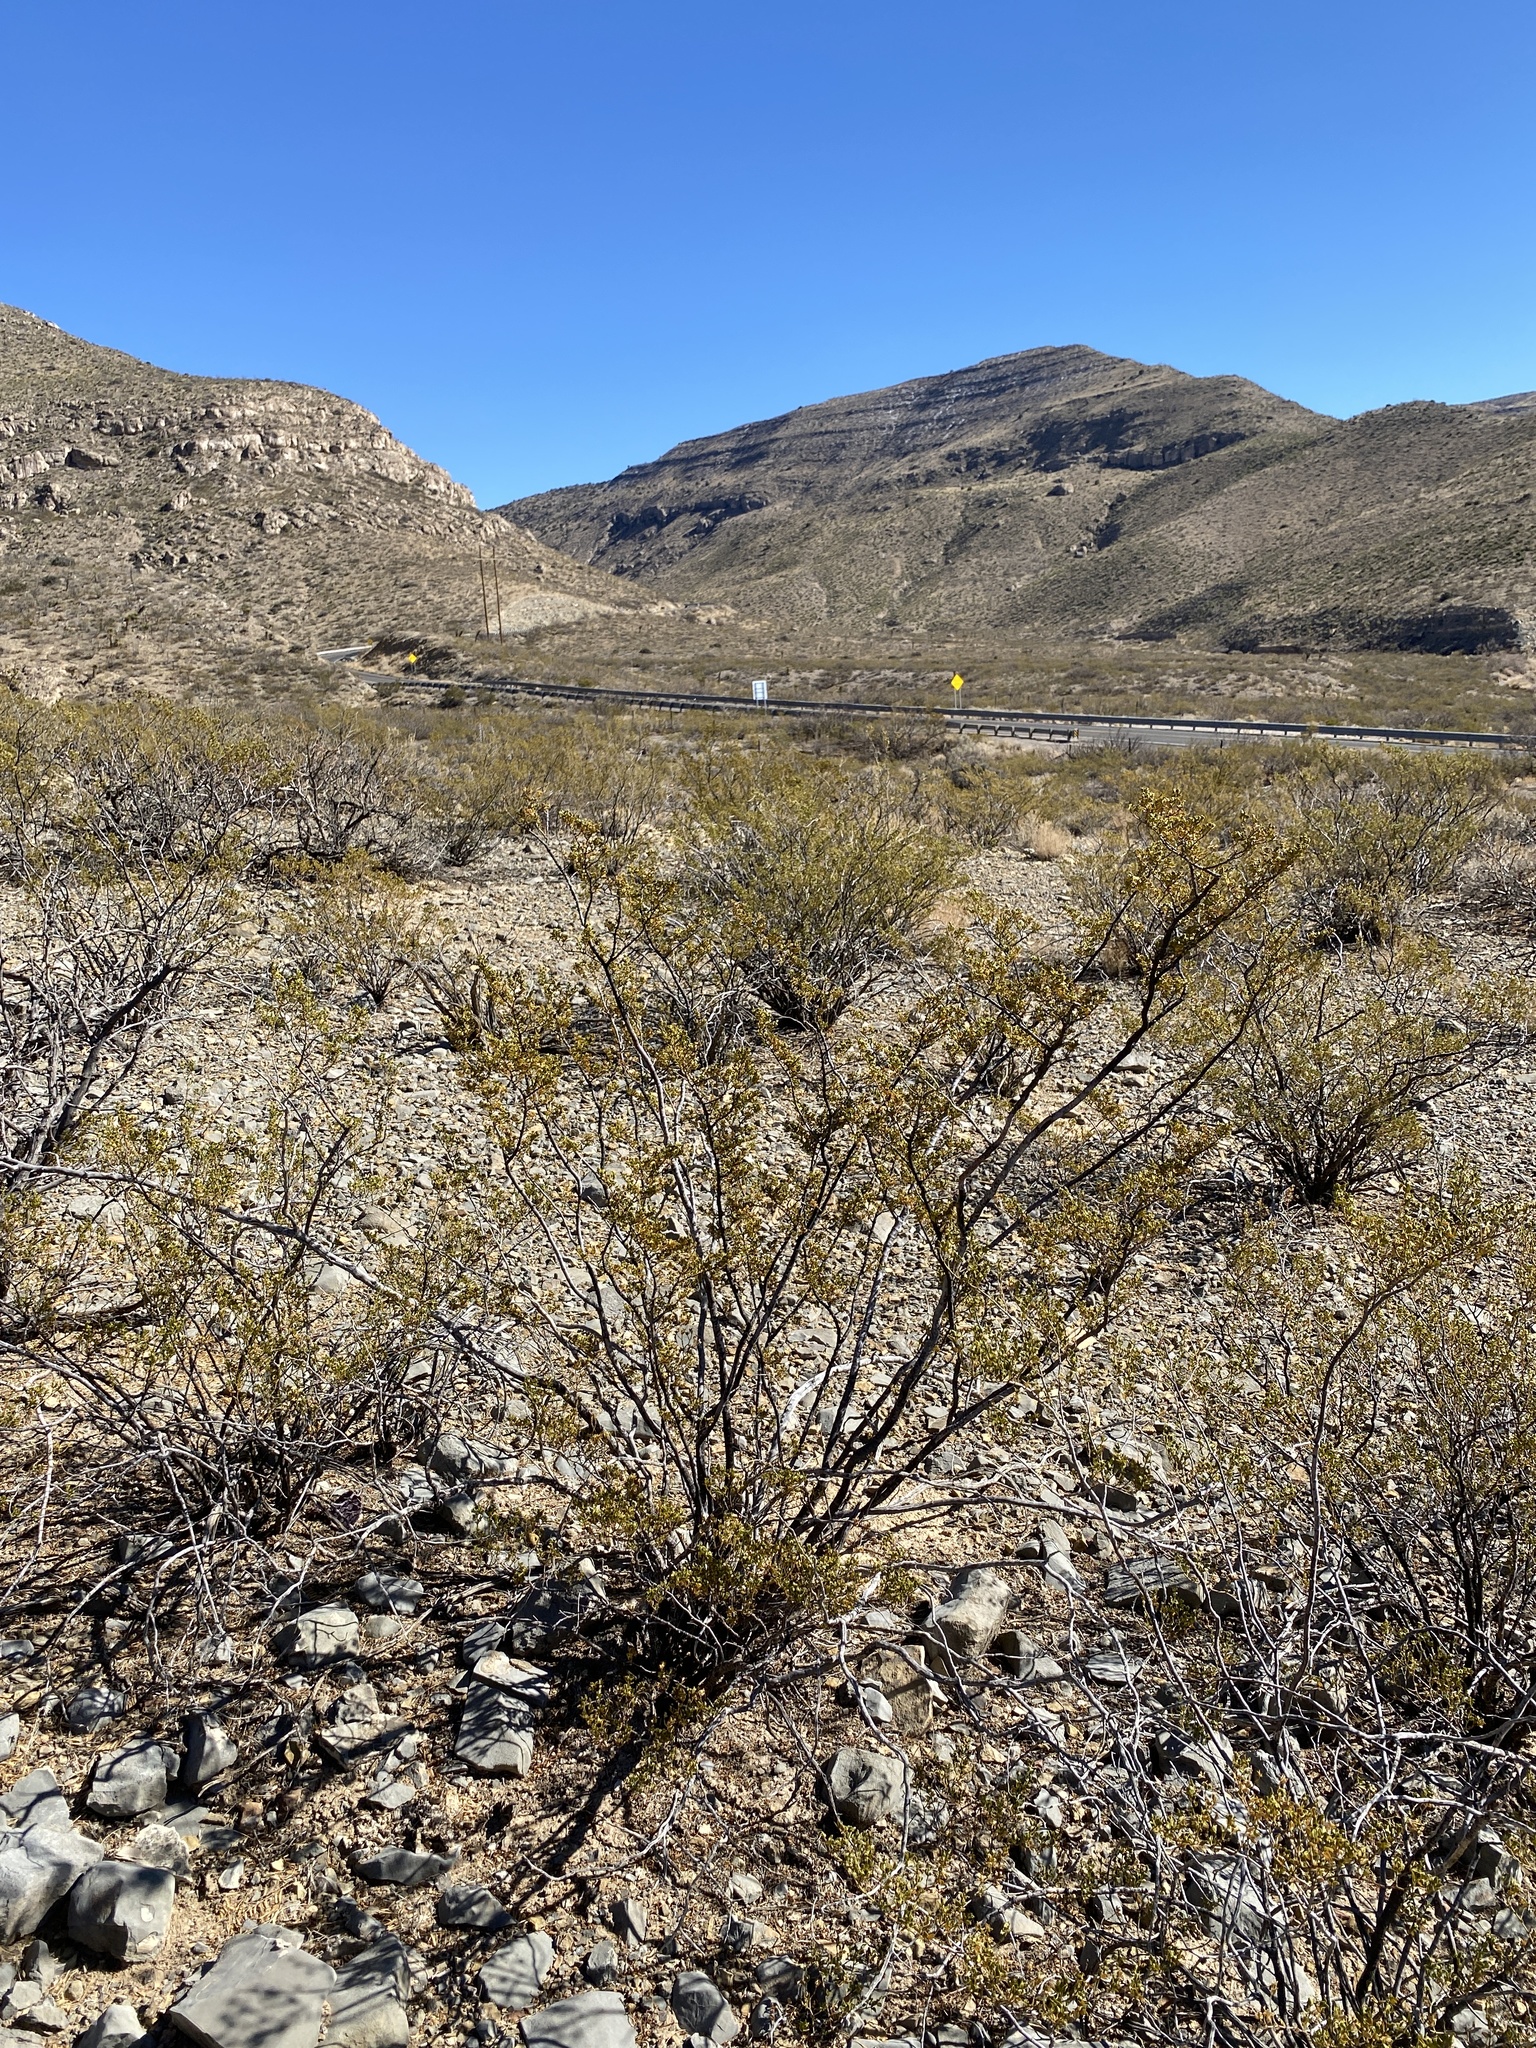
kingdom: Plantae
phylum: Tracheophyta
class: Magnoliopsida
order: Zygophyllales
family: Zygophyllaceae
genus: Larrea
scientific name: Larrea tridentata
